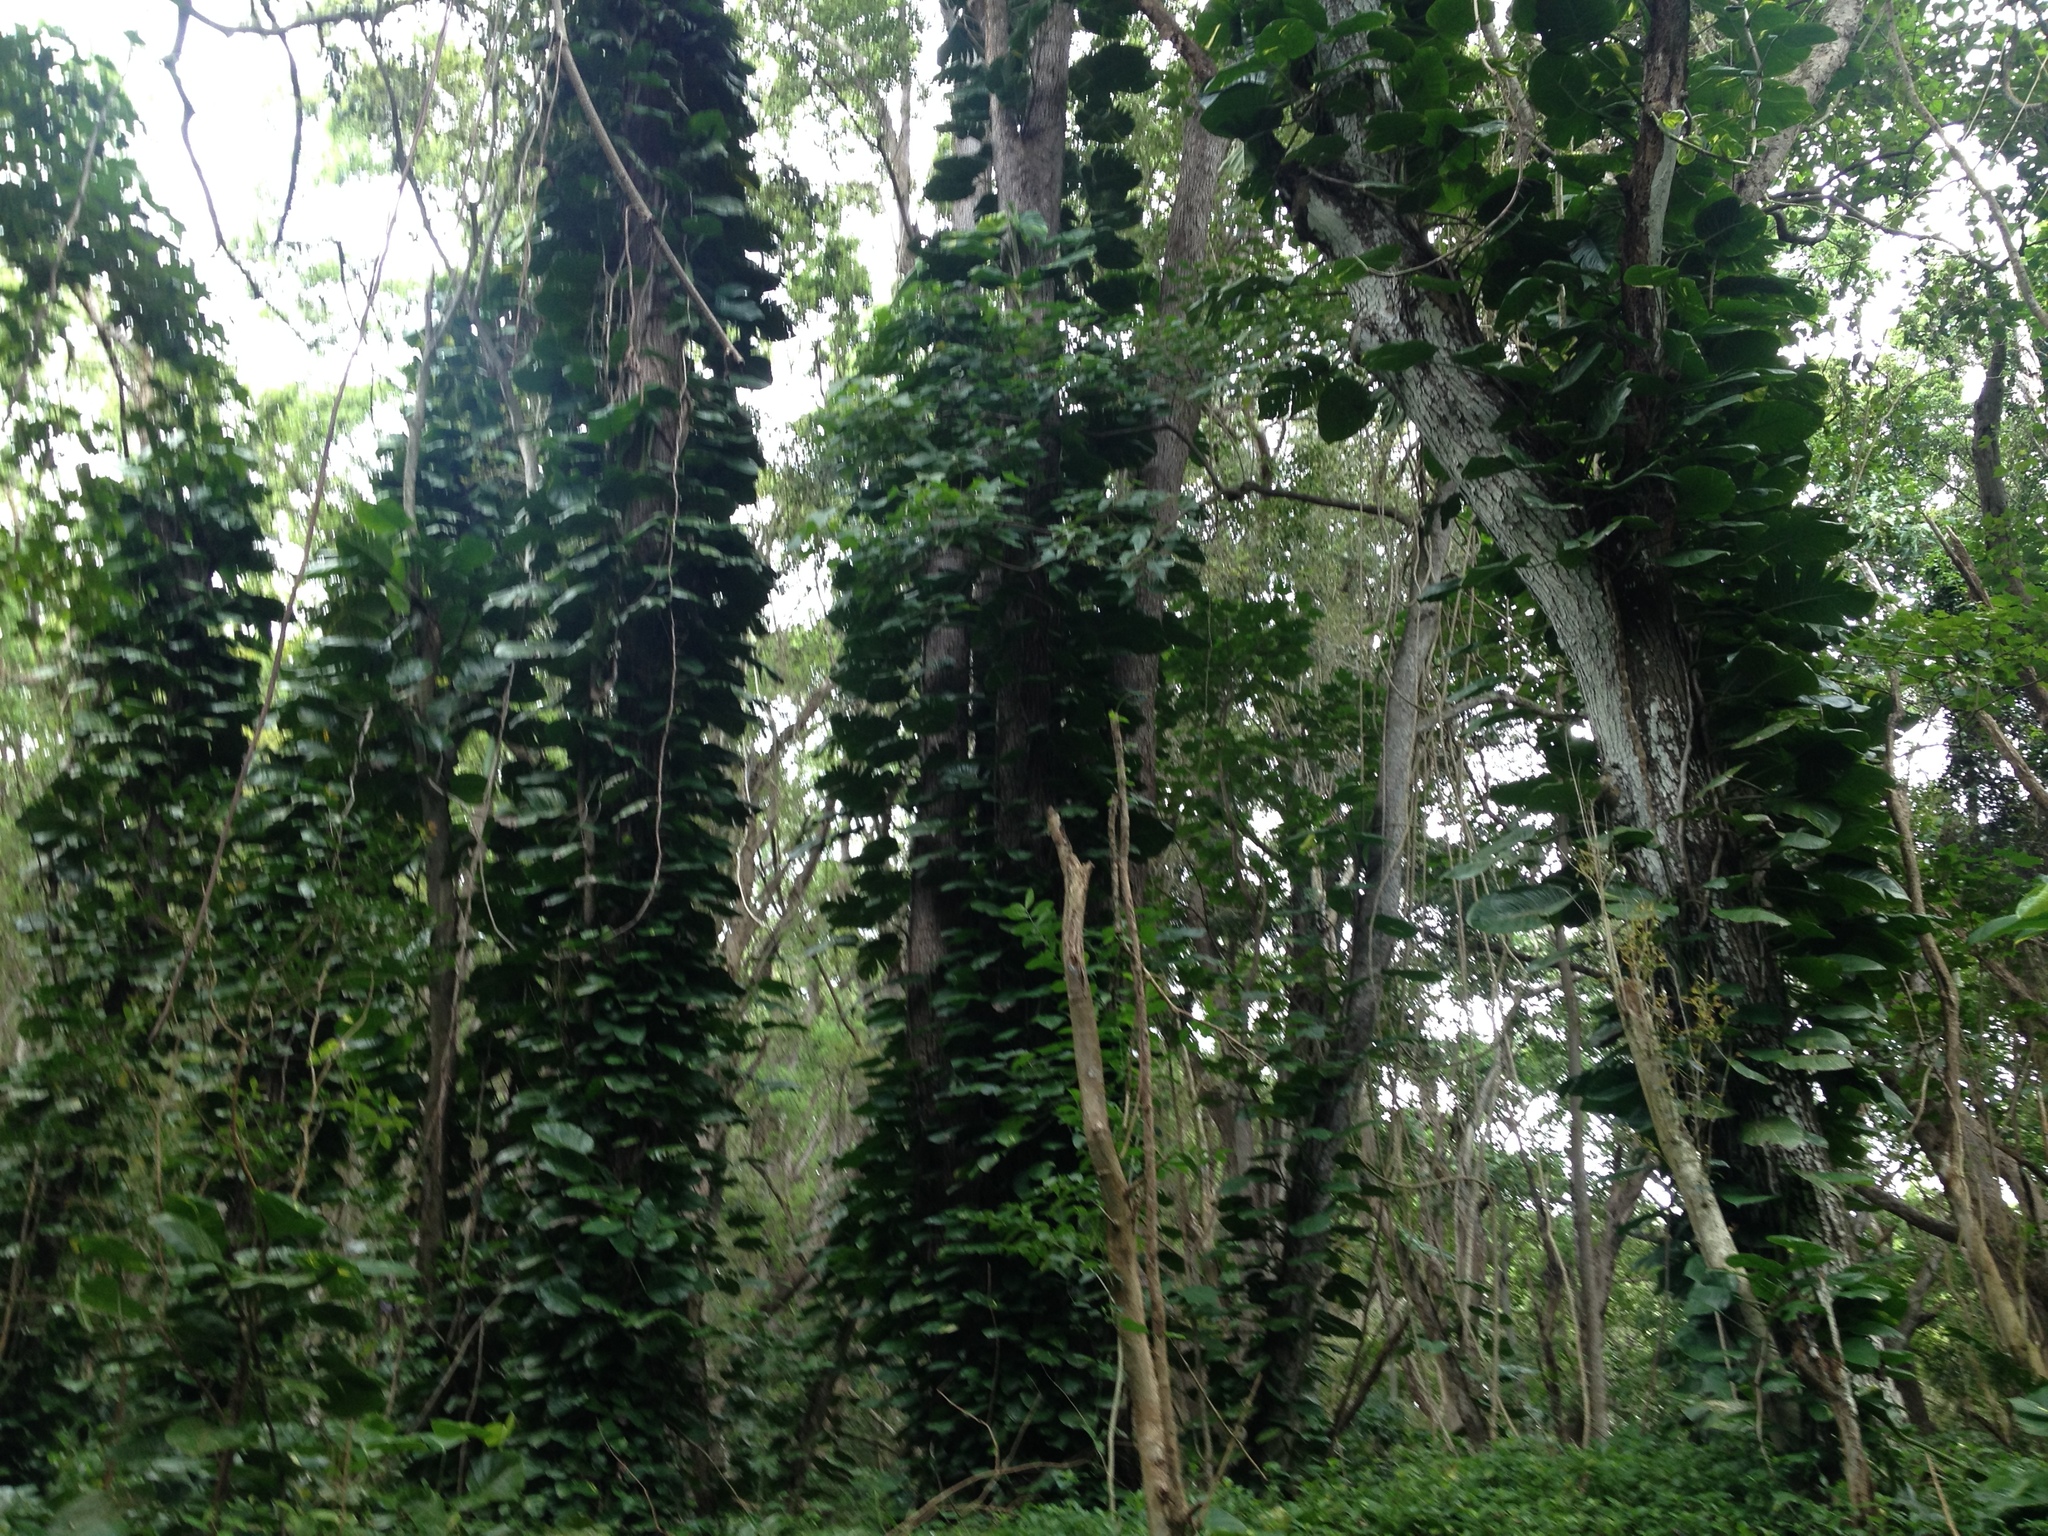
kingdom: Plantae
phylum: Tracheophyta
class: Liliopsida
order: Alismatales
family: Araceae
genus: Epipremnum
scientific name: Epipremnum aureum
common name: Golden hunter's-robe
